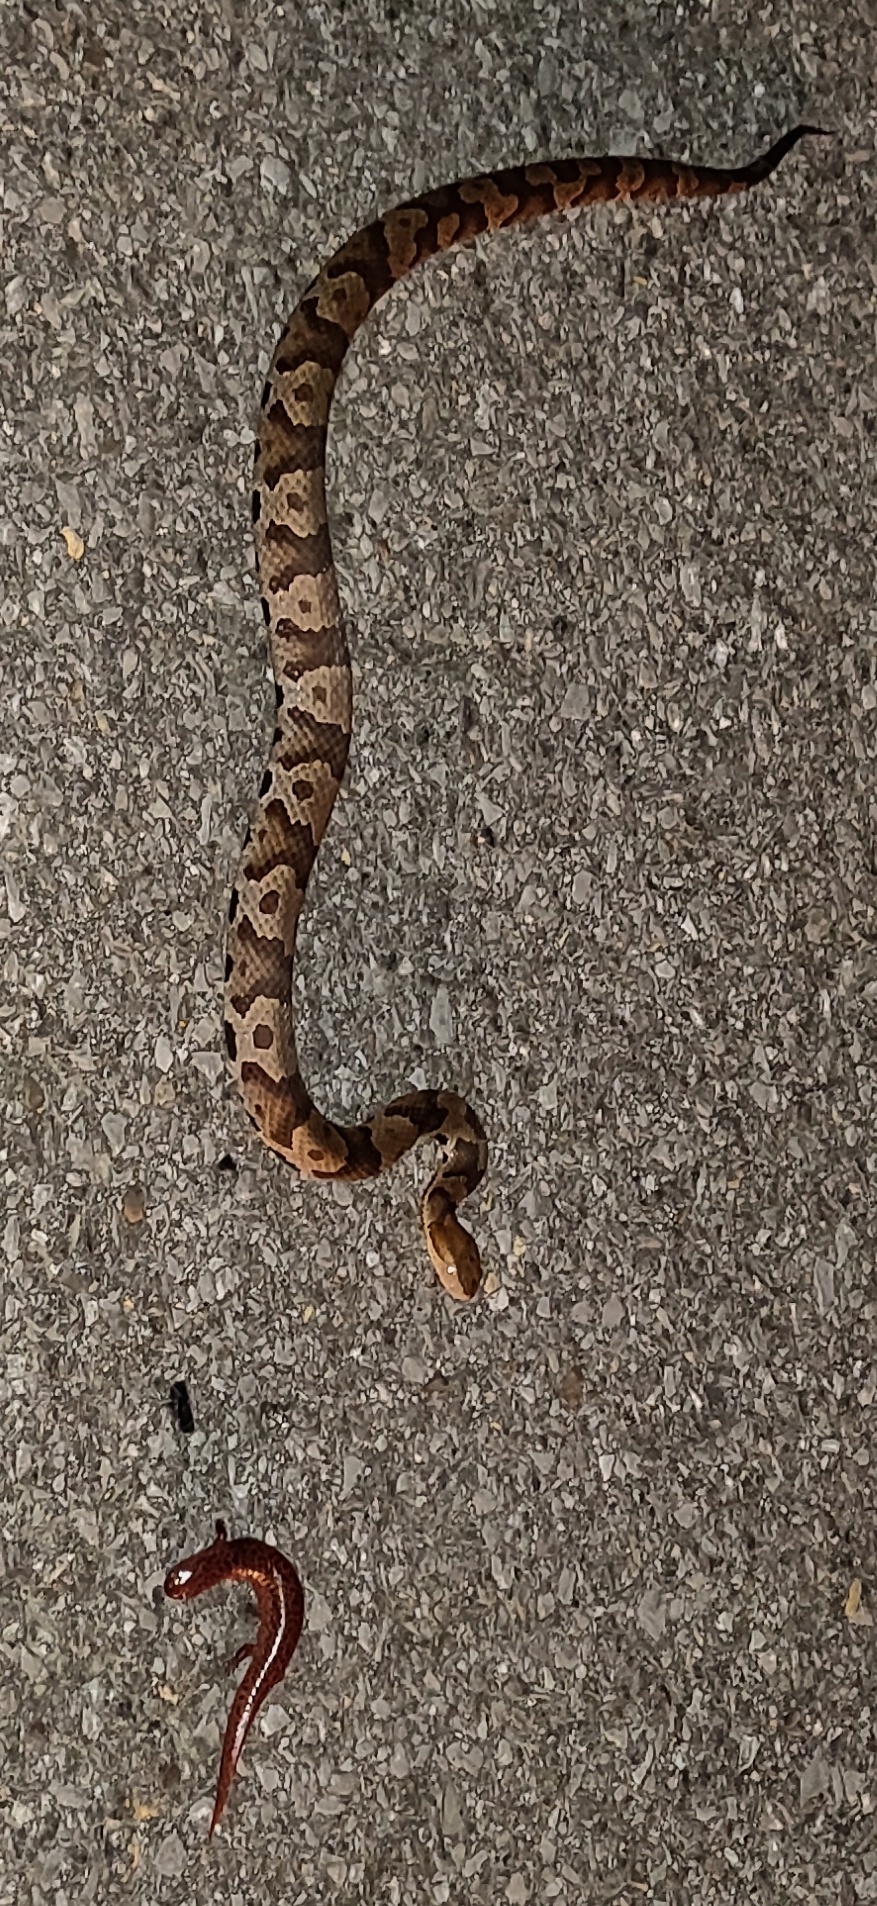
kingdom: Animalia
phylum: Chordata
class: Squamata
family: Viperidae
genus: Agkistrodon
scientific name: Agkistrodon contortrix
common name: Northern copperhead
